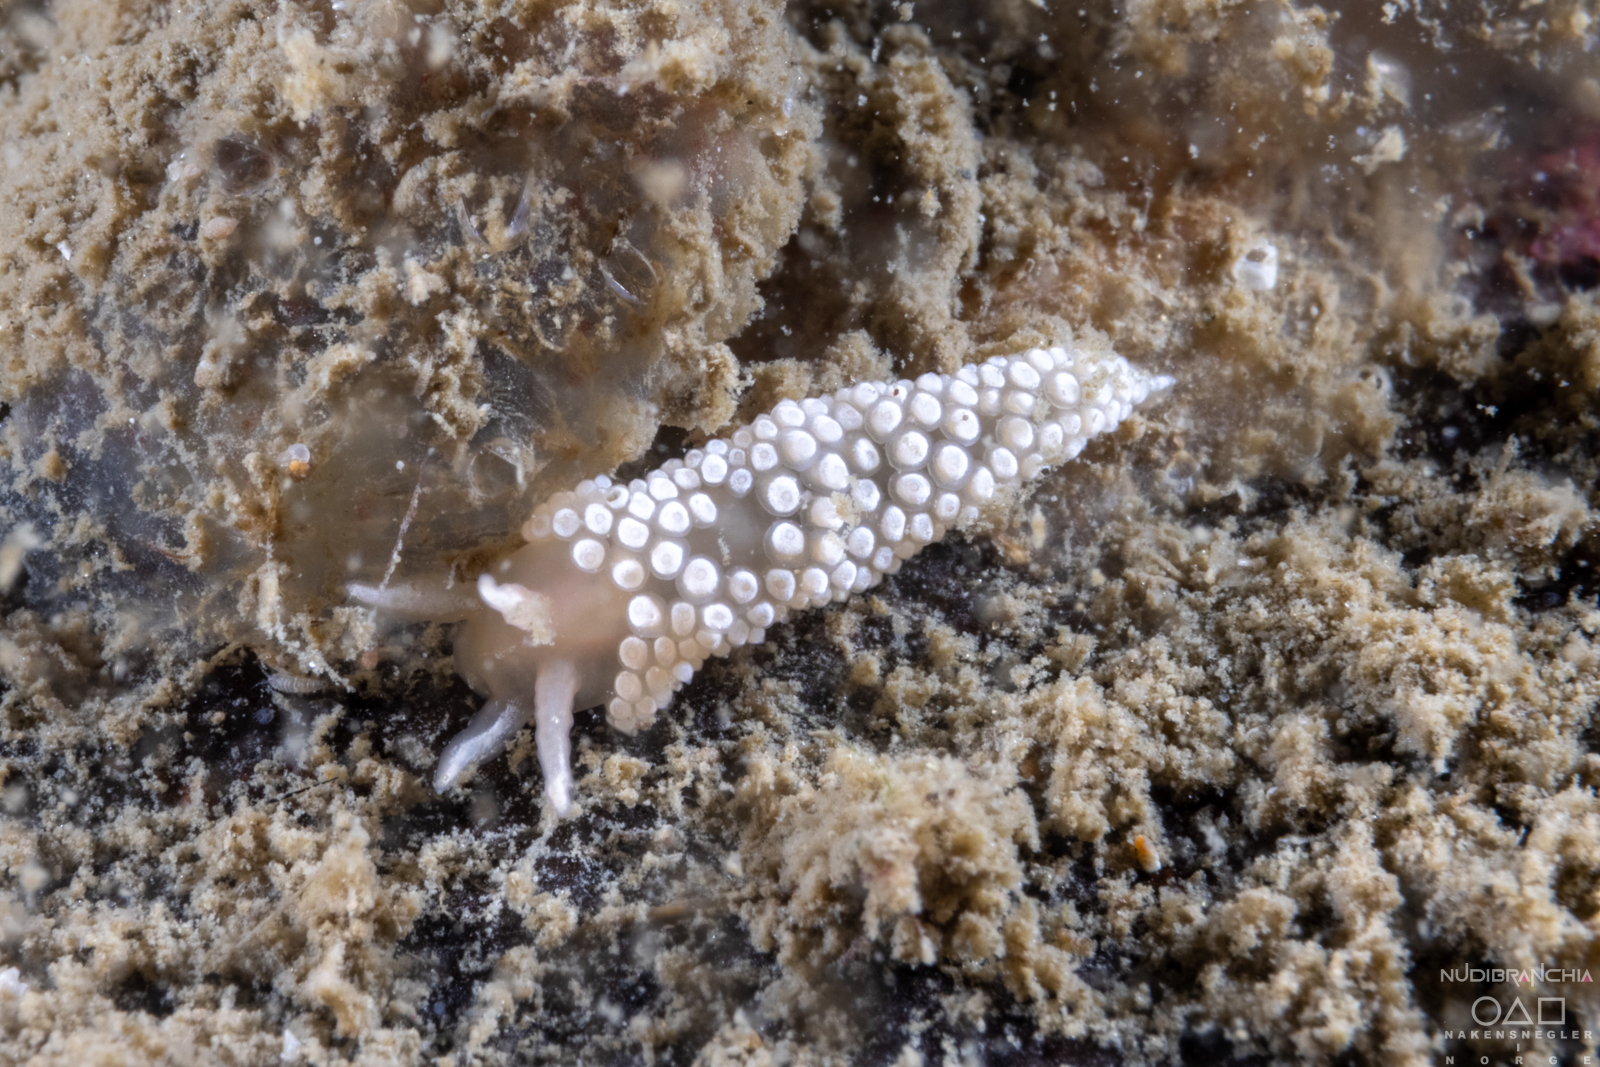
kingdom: Animalia
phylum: Mollusca
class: Gastropoda
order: Nudibranchia
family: Coryphellidae
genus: Coryphella
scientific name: Coryphella verrucosa
